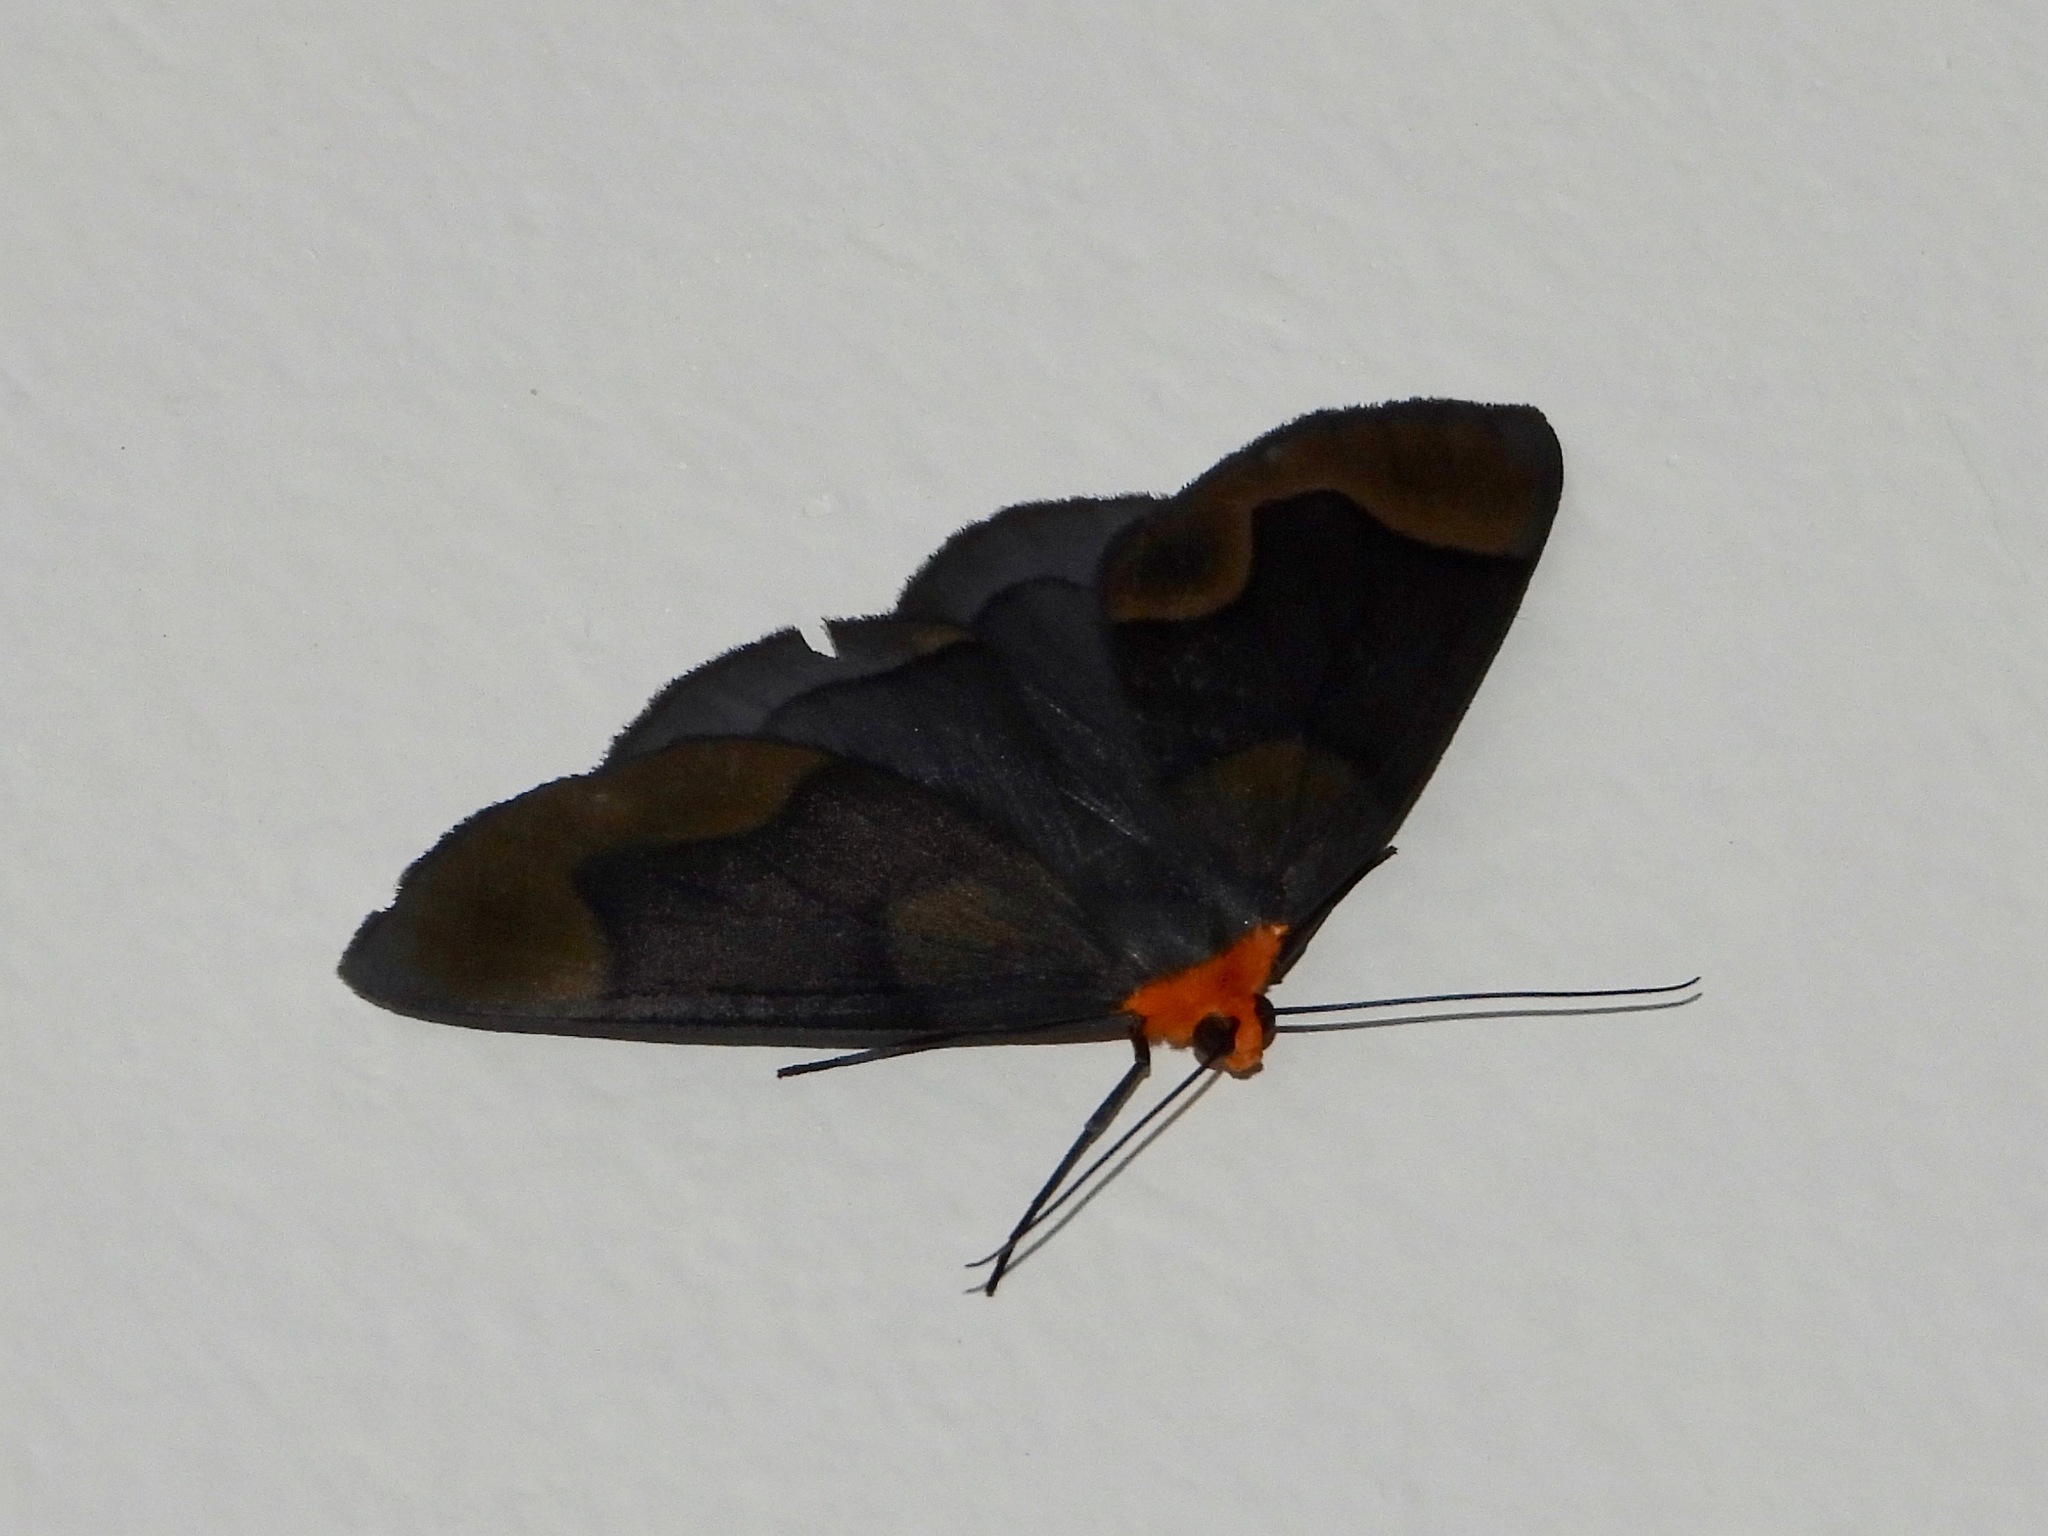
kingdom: Animalia
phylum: Arthropoda
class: Insecta
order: Lepidoptera
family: Geometridae
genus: Simena
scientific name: Simena
